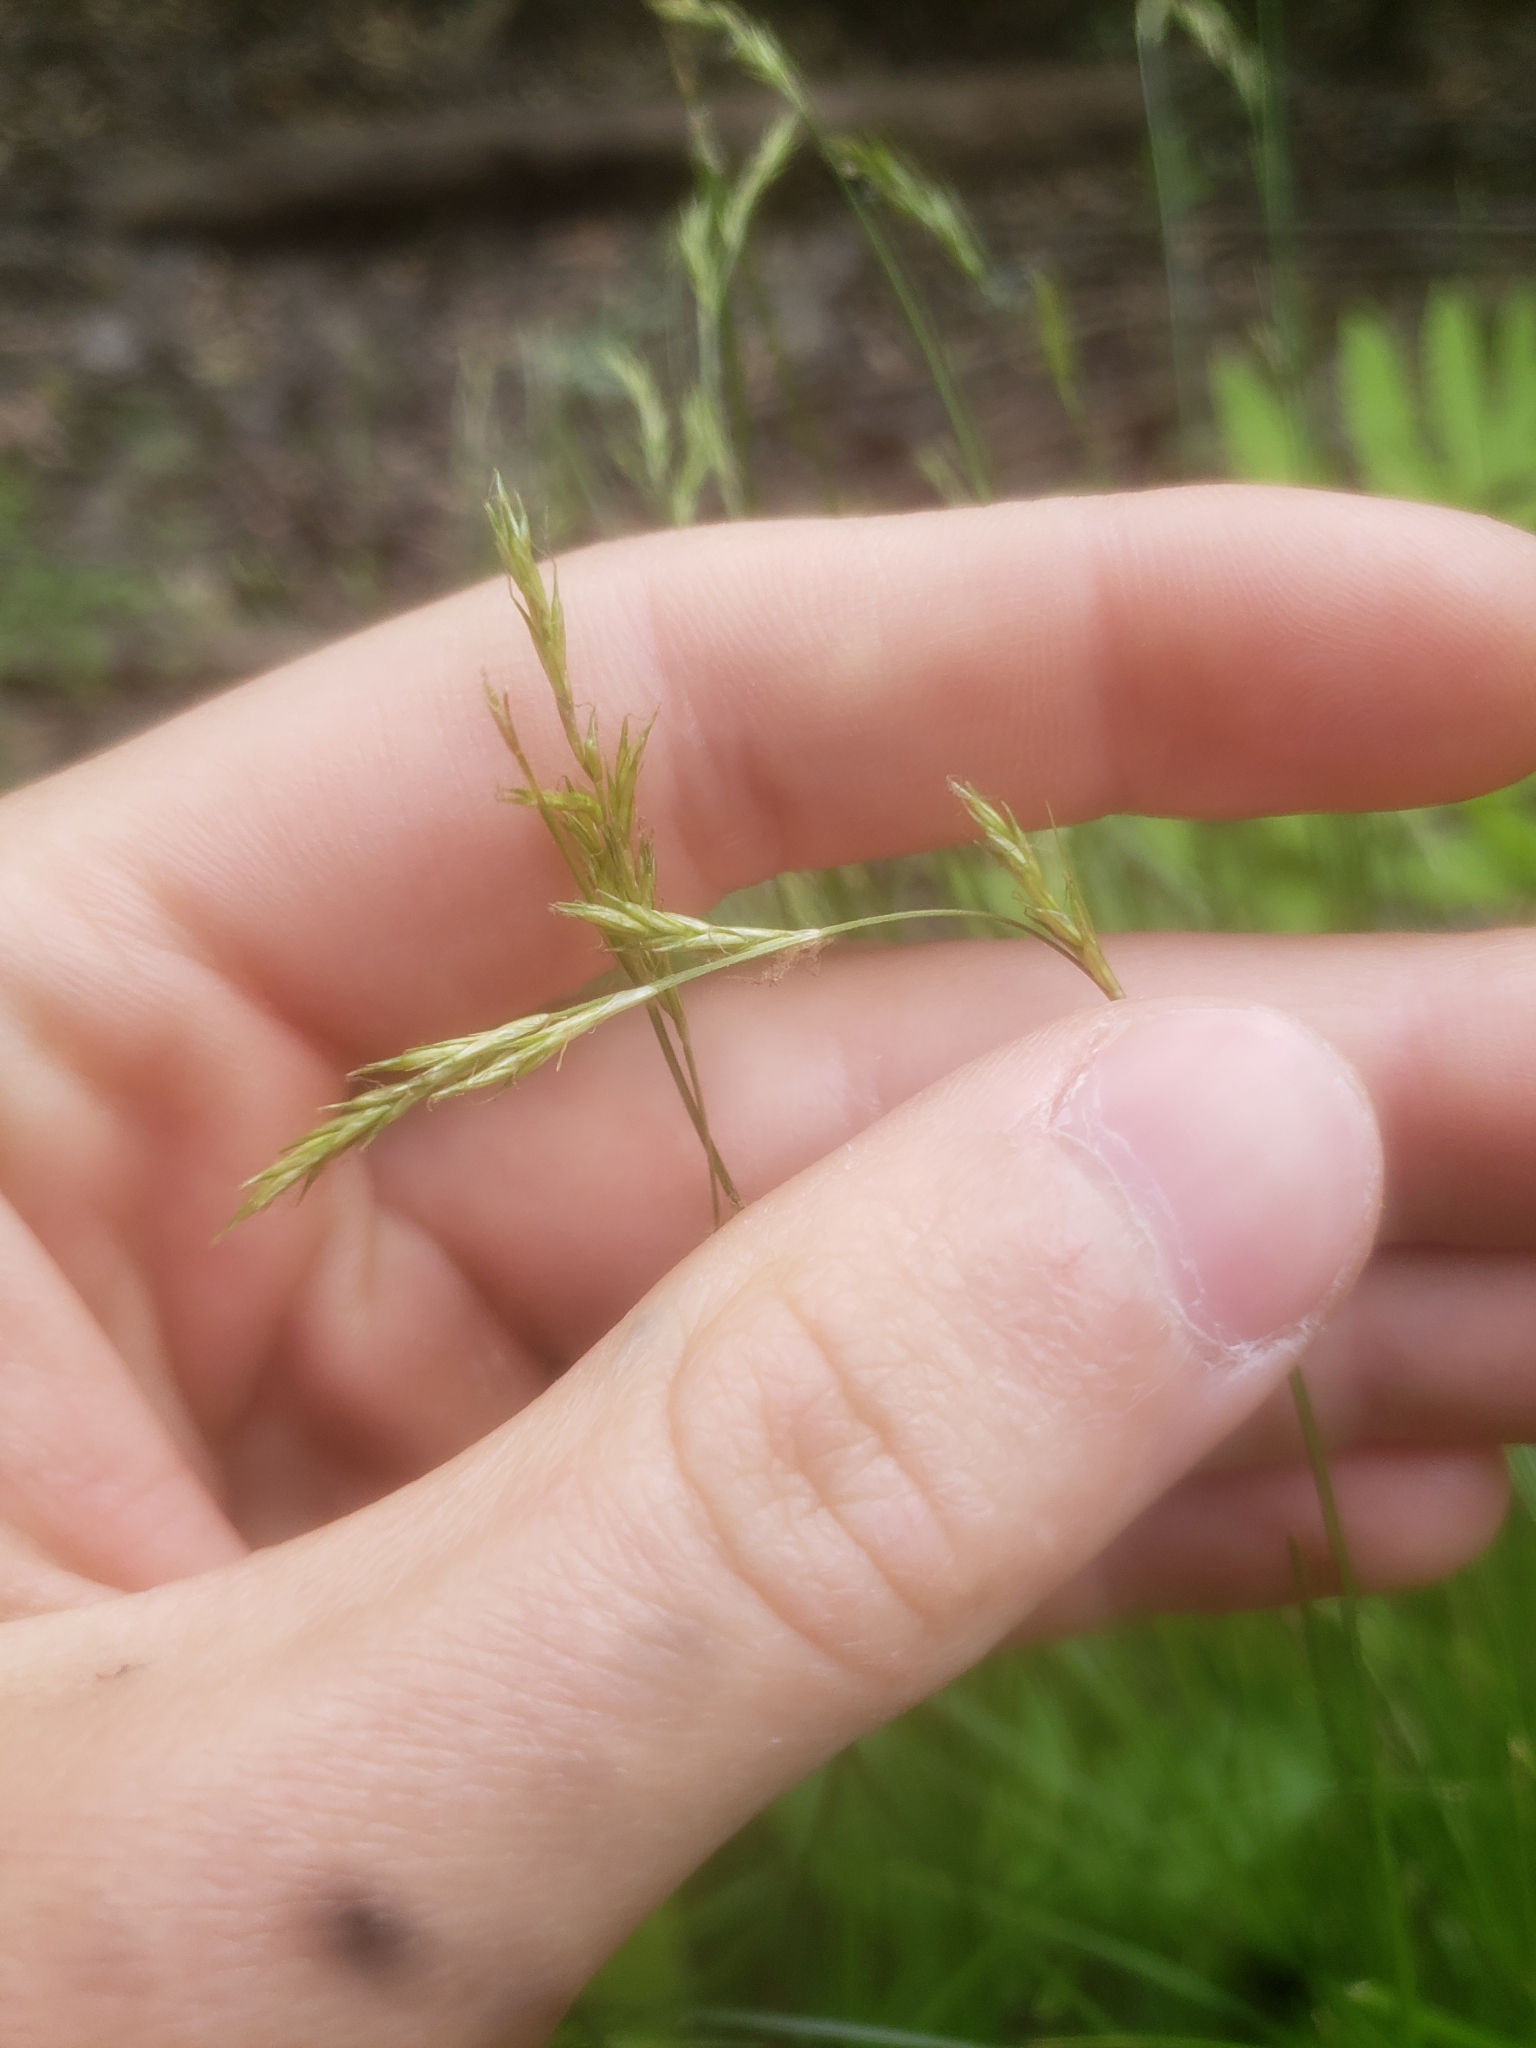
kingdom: Plantae
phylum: Tracheophyta
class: Liliopsida
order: Poales
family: Cyperaceae
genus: Carex
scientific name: Carex bromoides
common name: Brome hummock sedge
